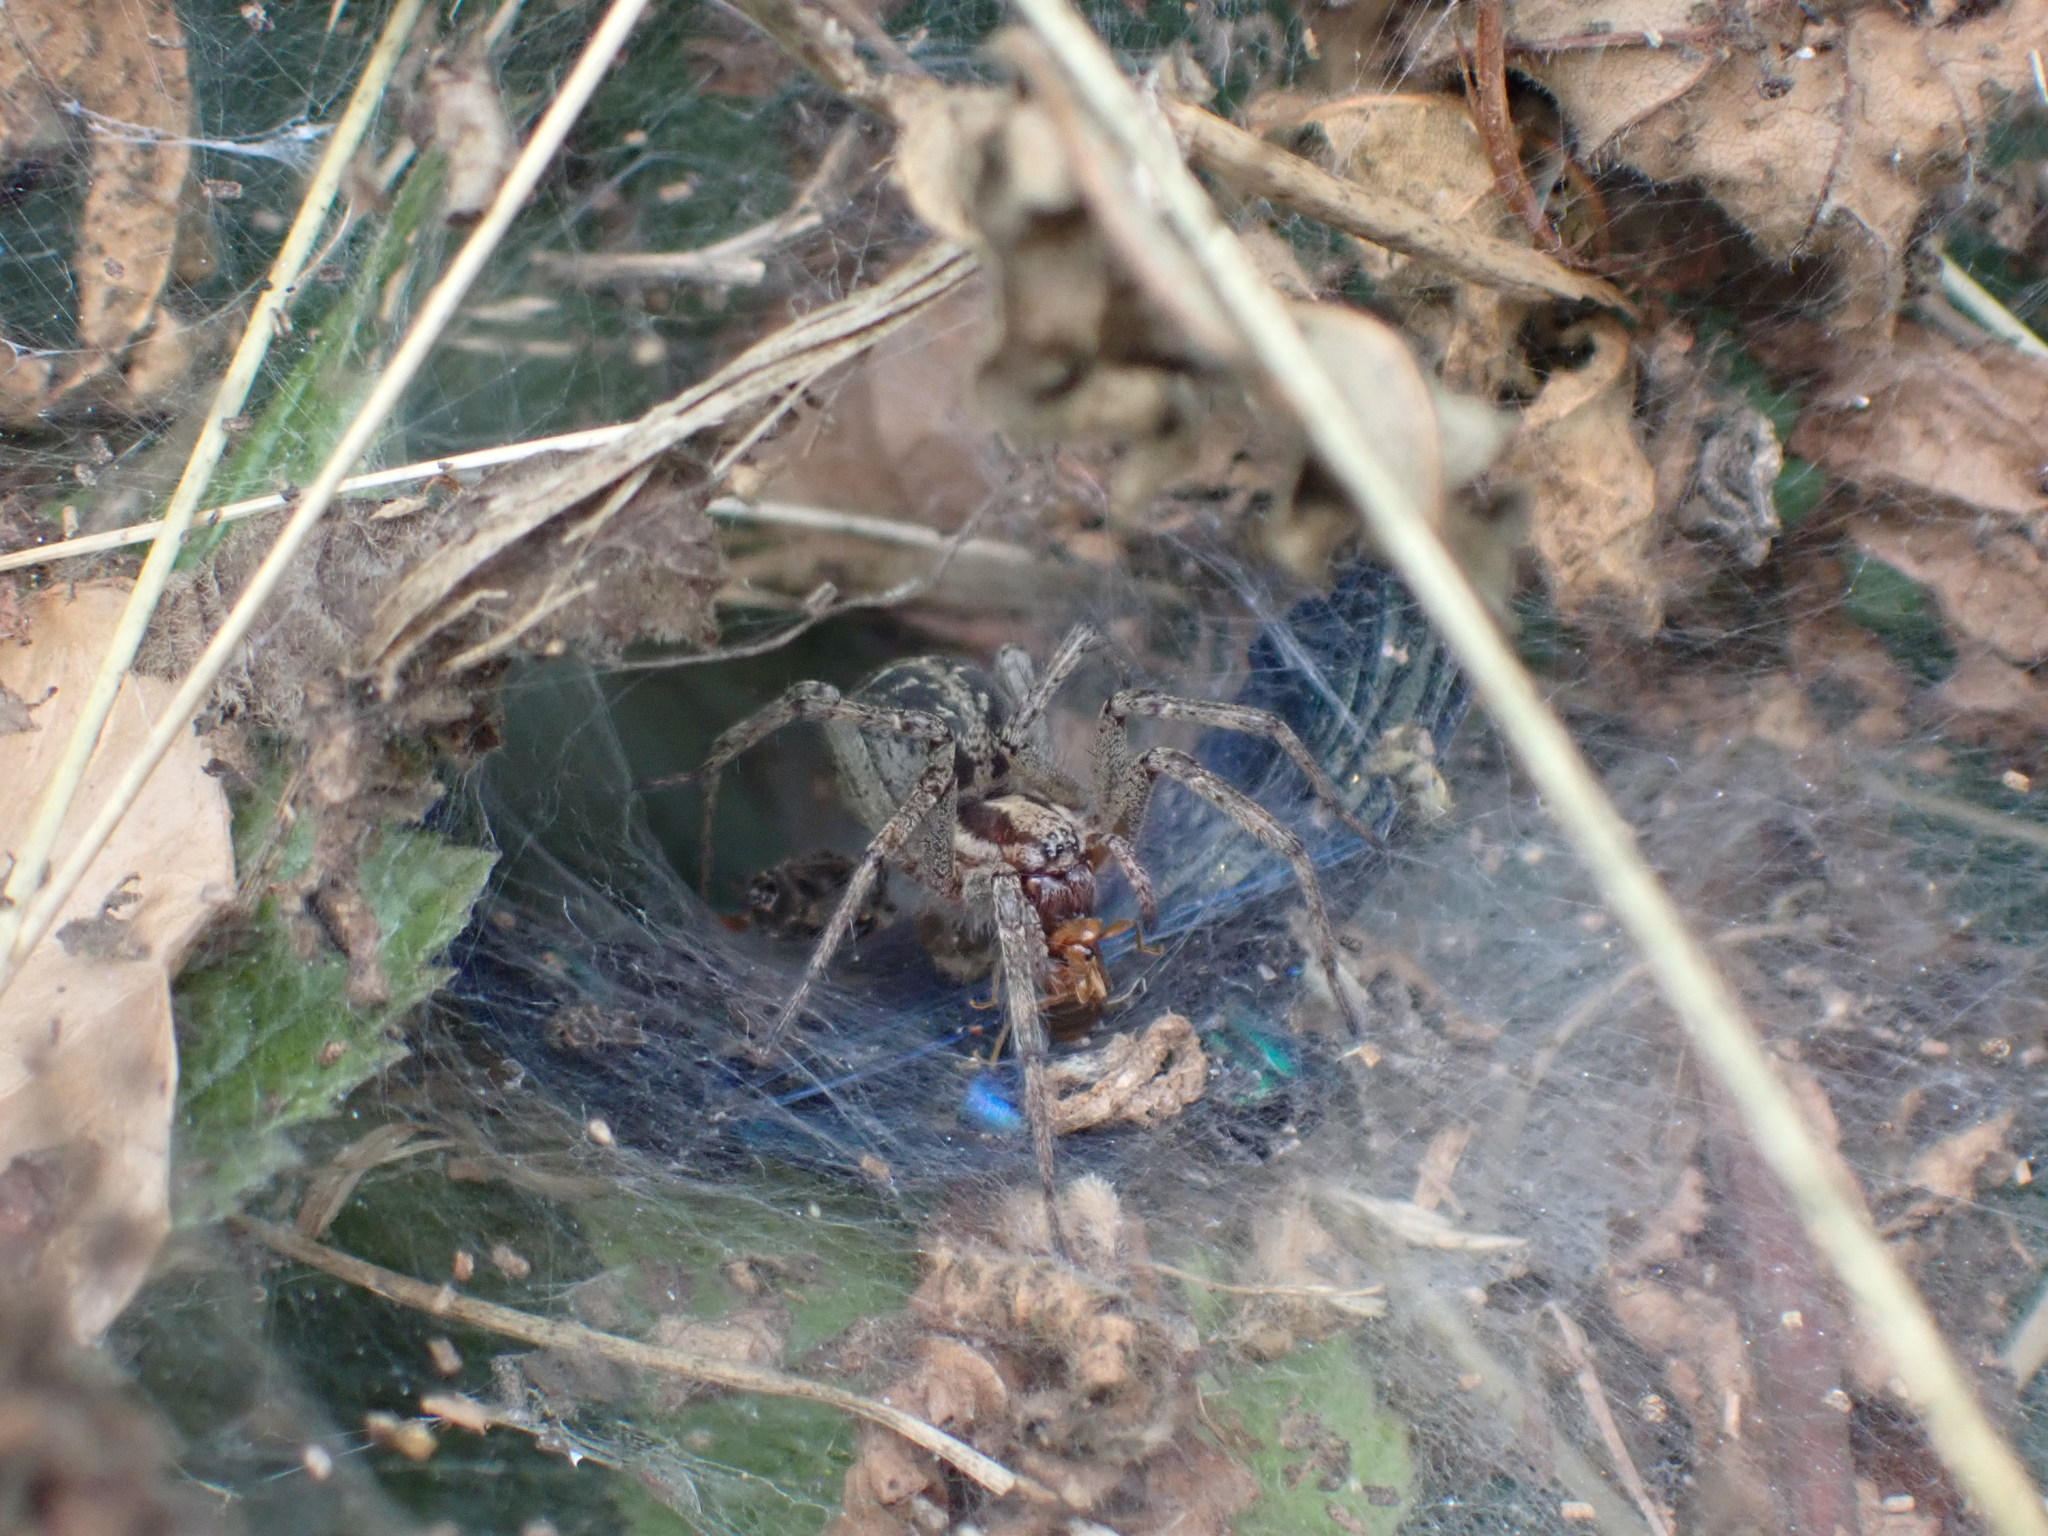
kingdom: Animalia
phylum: Arthropoda
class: Arachnida
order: Araneae
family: Agelenidae
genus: Agelena
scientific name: Agelena labyrinthica
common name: Labyrinth spider
